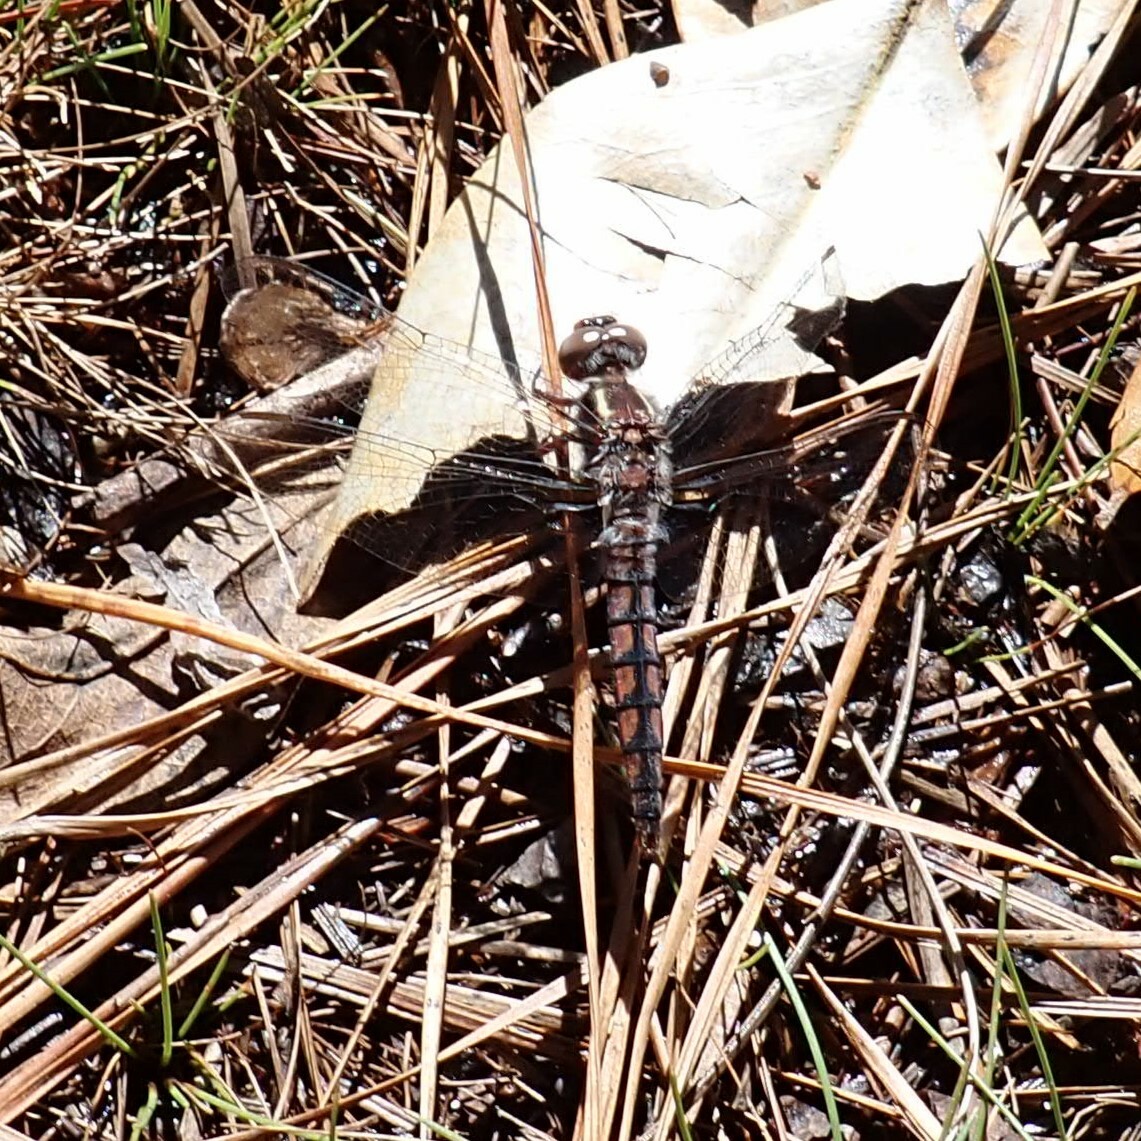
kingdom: Animalia
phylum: Arthropoda
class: Insecta
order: Odonata
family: Libellulidae
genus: Ladona
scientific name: Ladona deplanata
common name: Blue corporal
